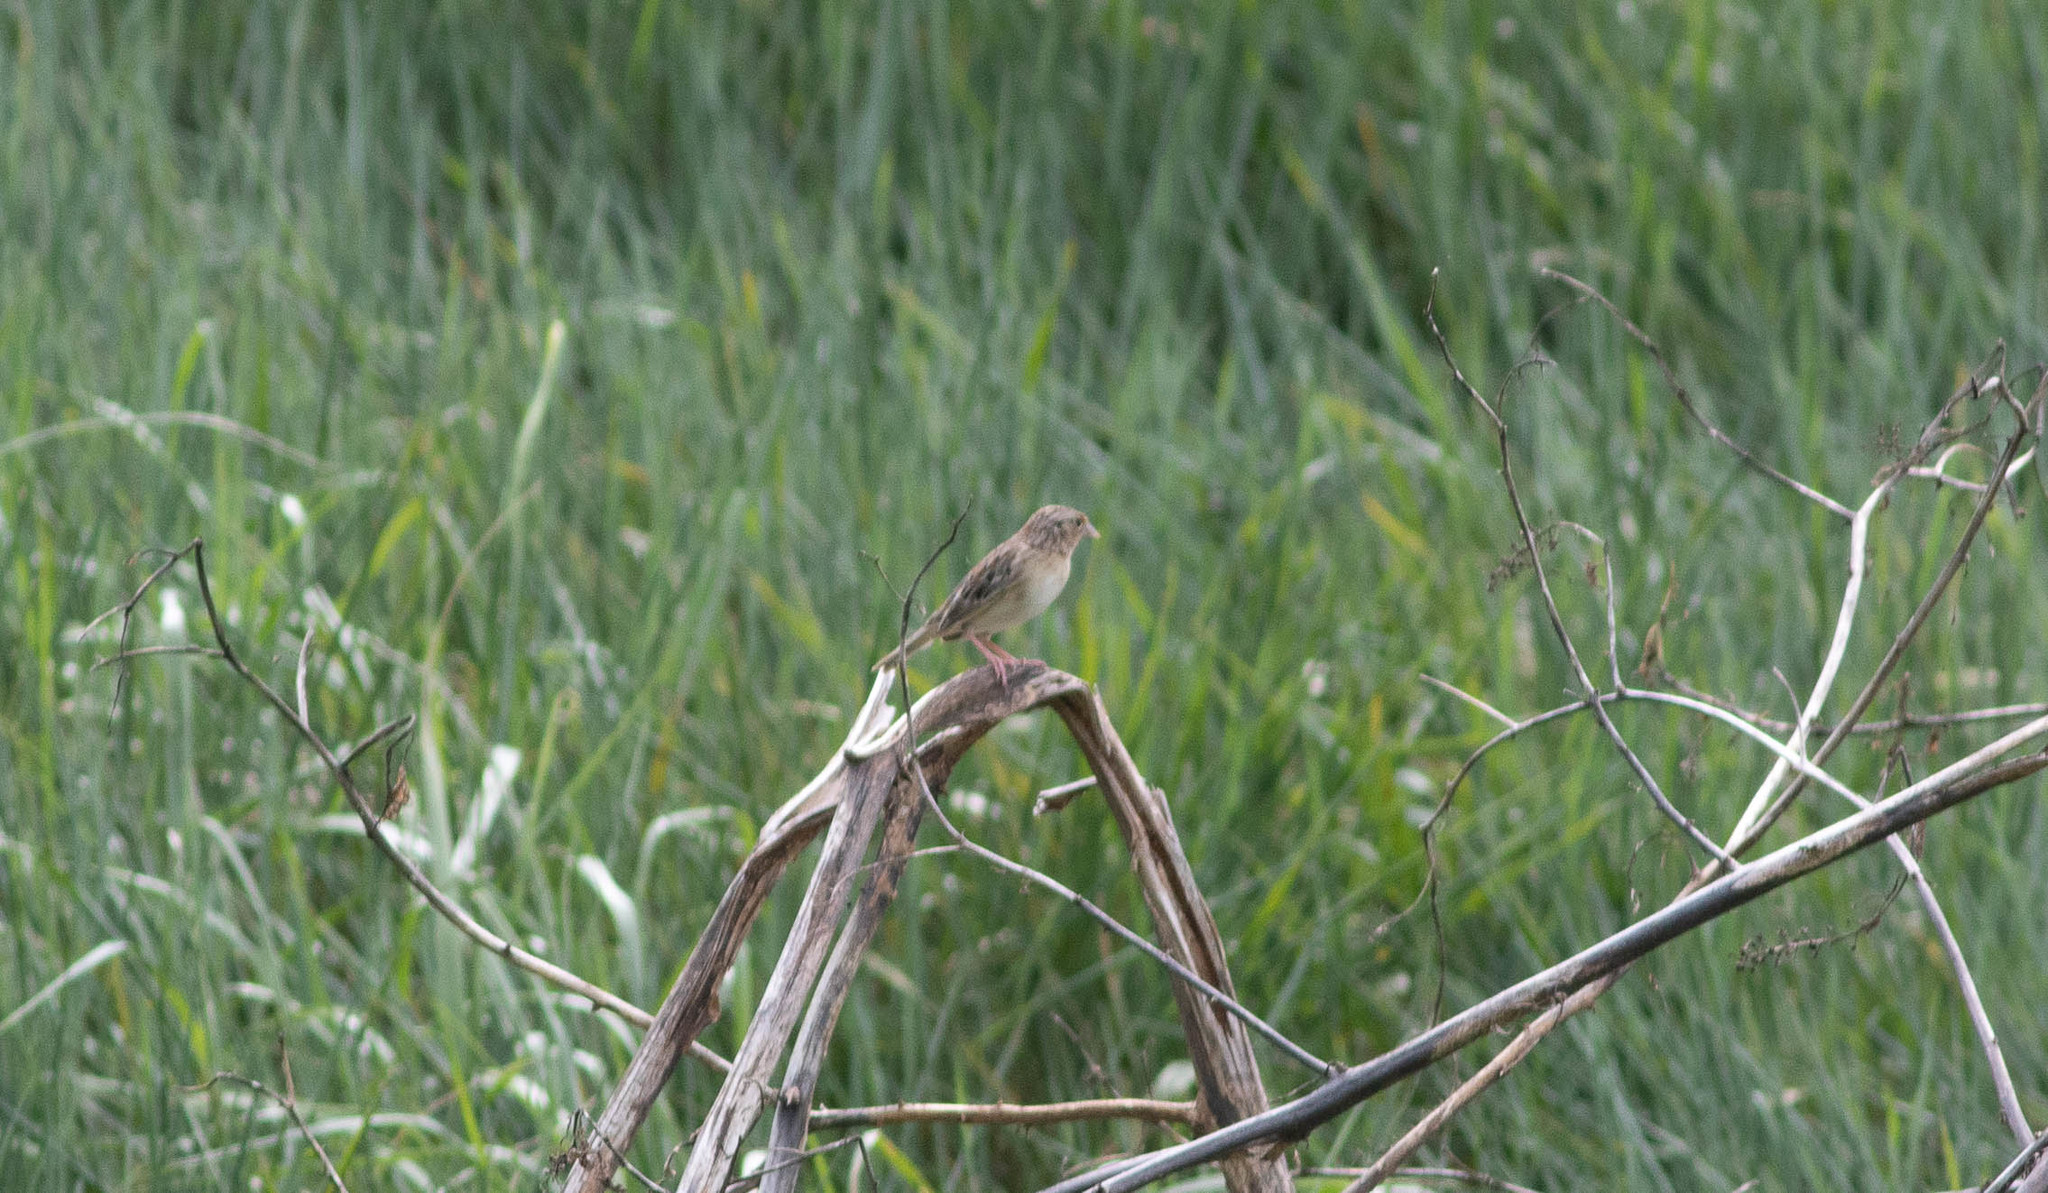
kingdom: Animalia
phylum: Chordata
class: Aves
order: Passeriformes
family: Passerellidae
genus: Ammodramus
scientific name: Ammodramus savannarum
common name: Grasshopper sparrow
